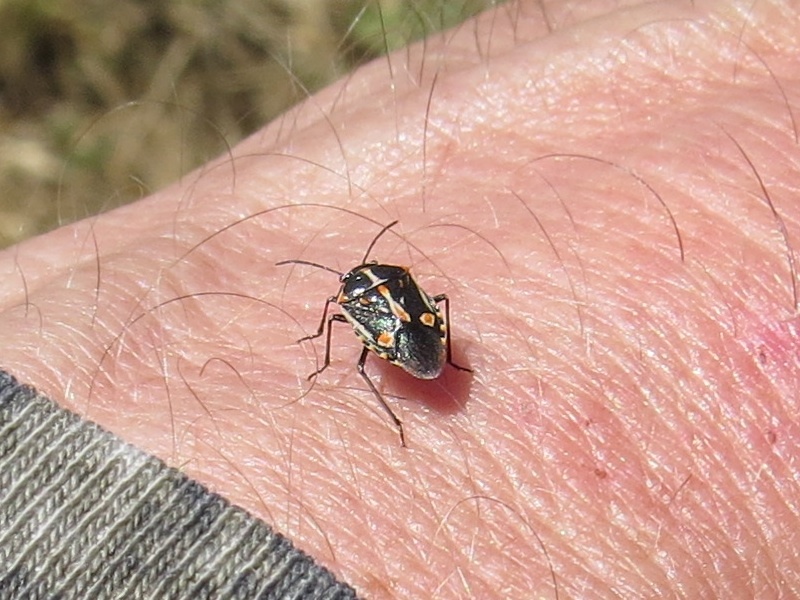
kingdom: Animalia
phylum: Arthropoda
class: Insecta
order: Hemiptera
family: Pentatomidae
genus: Bagrada
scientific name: Bagrada hilaris
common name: Bagrada bug
